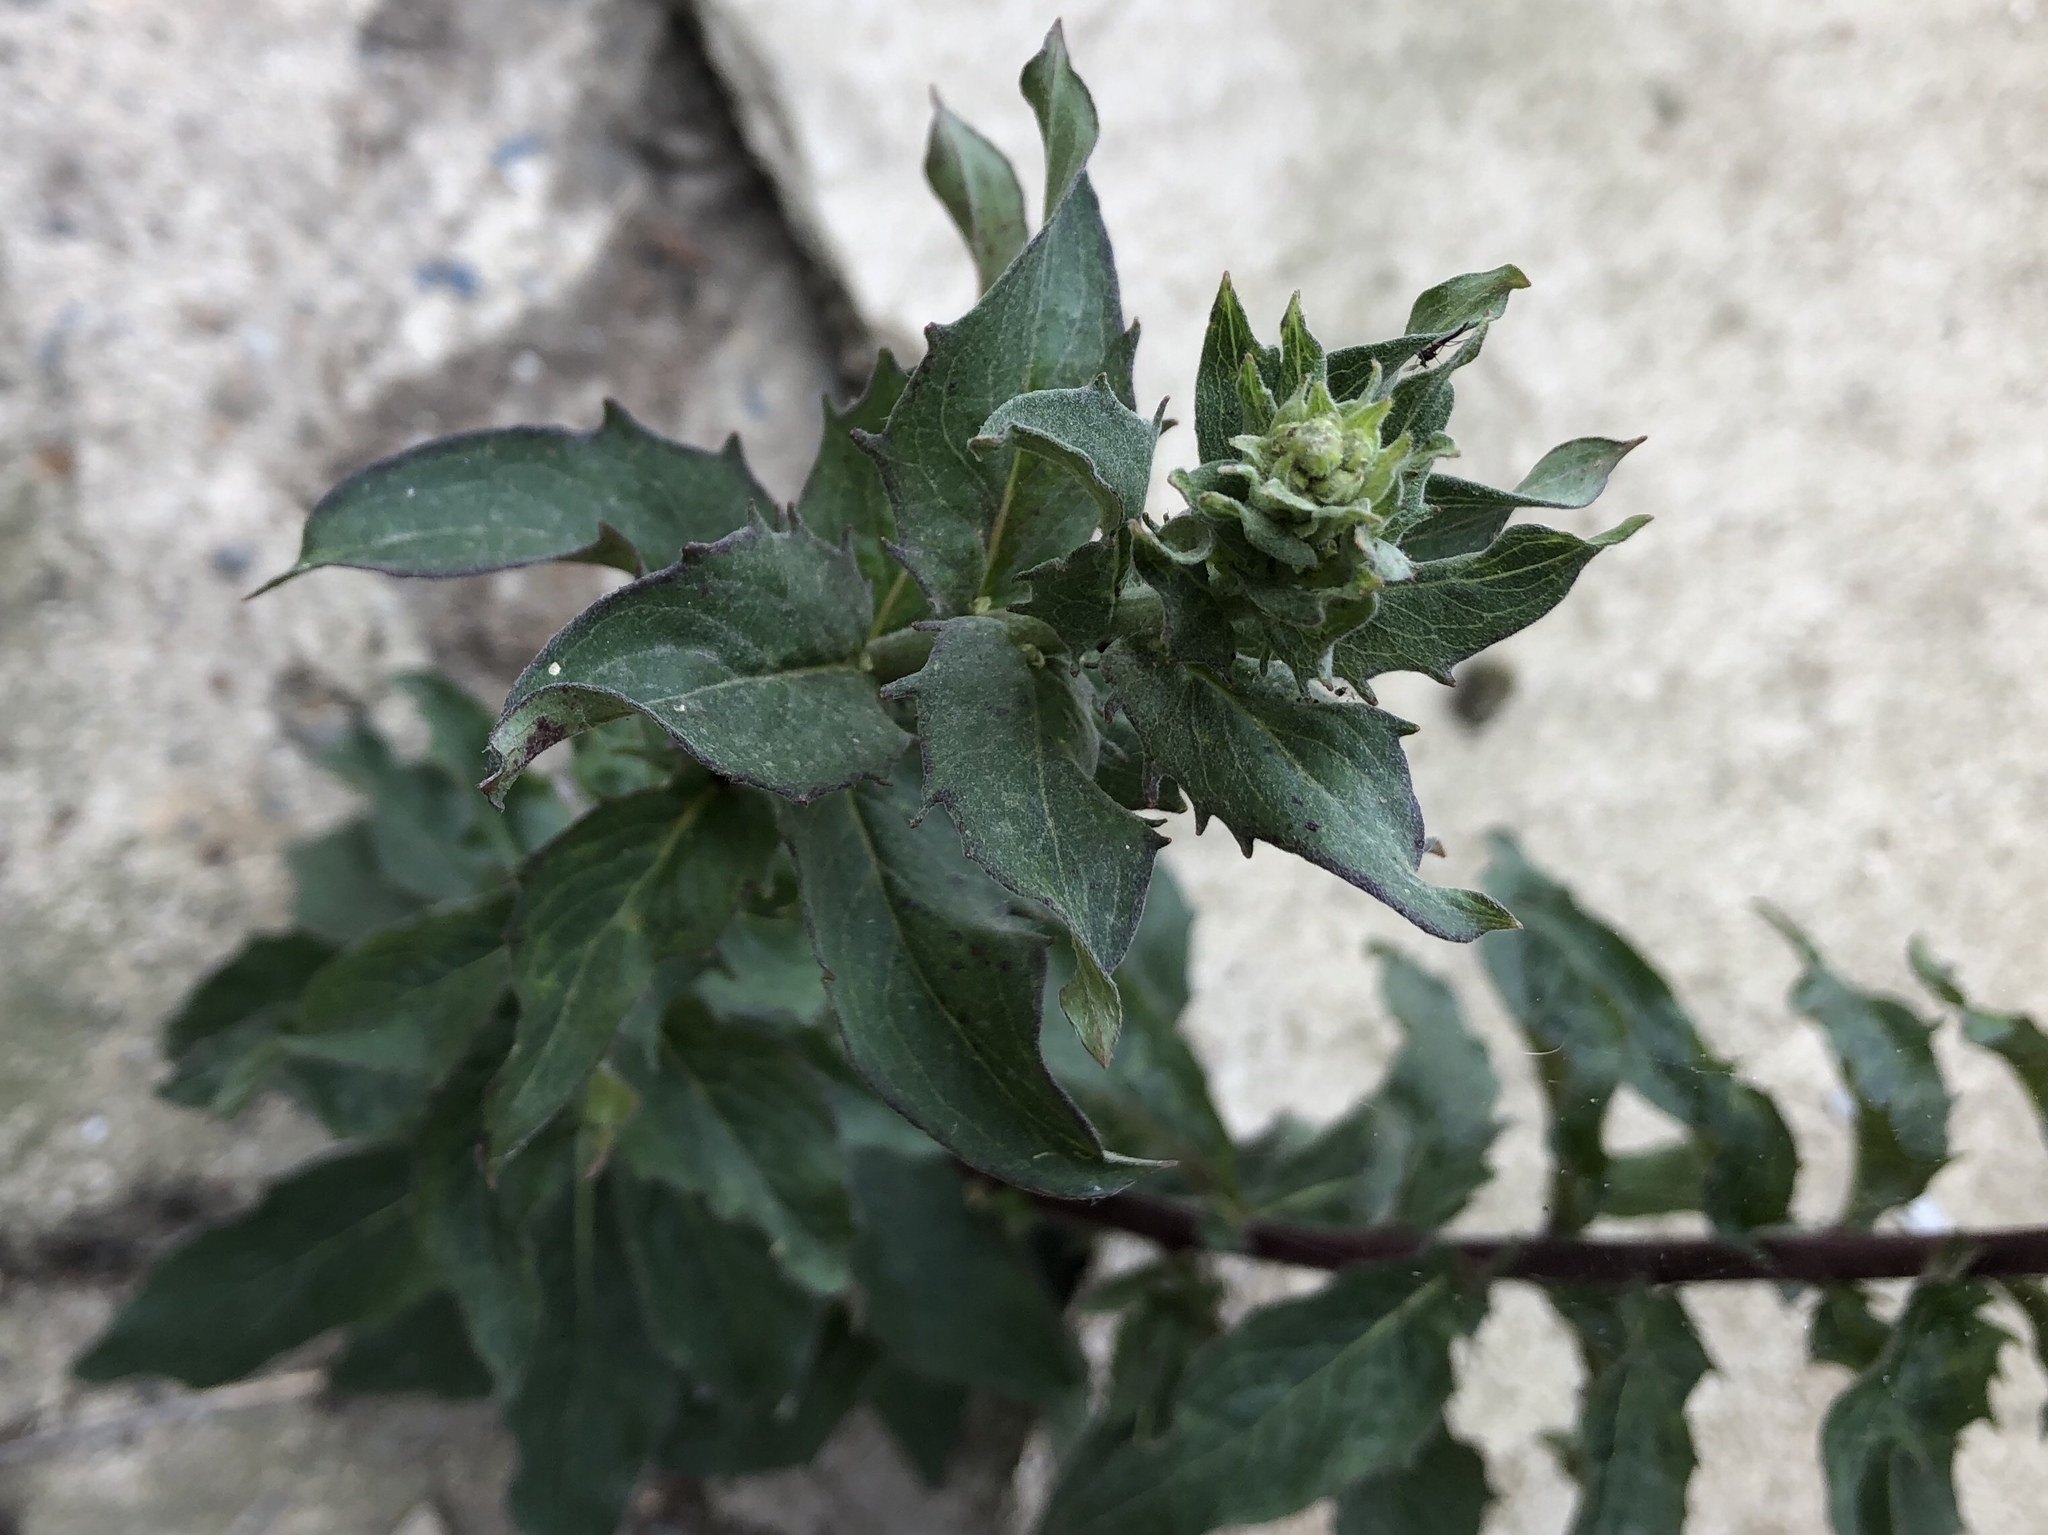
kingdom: Plantae
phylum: Tracheophyta
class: Magnoliopsida
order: Asterales
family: Asteraceae
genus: Hieracium
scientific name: Hieracium sabaudum
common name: New england hawkweed
